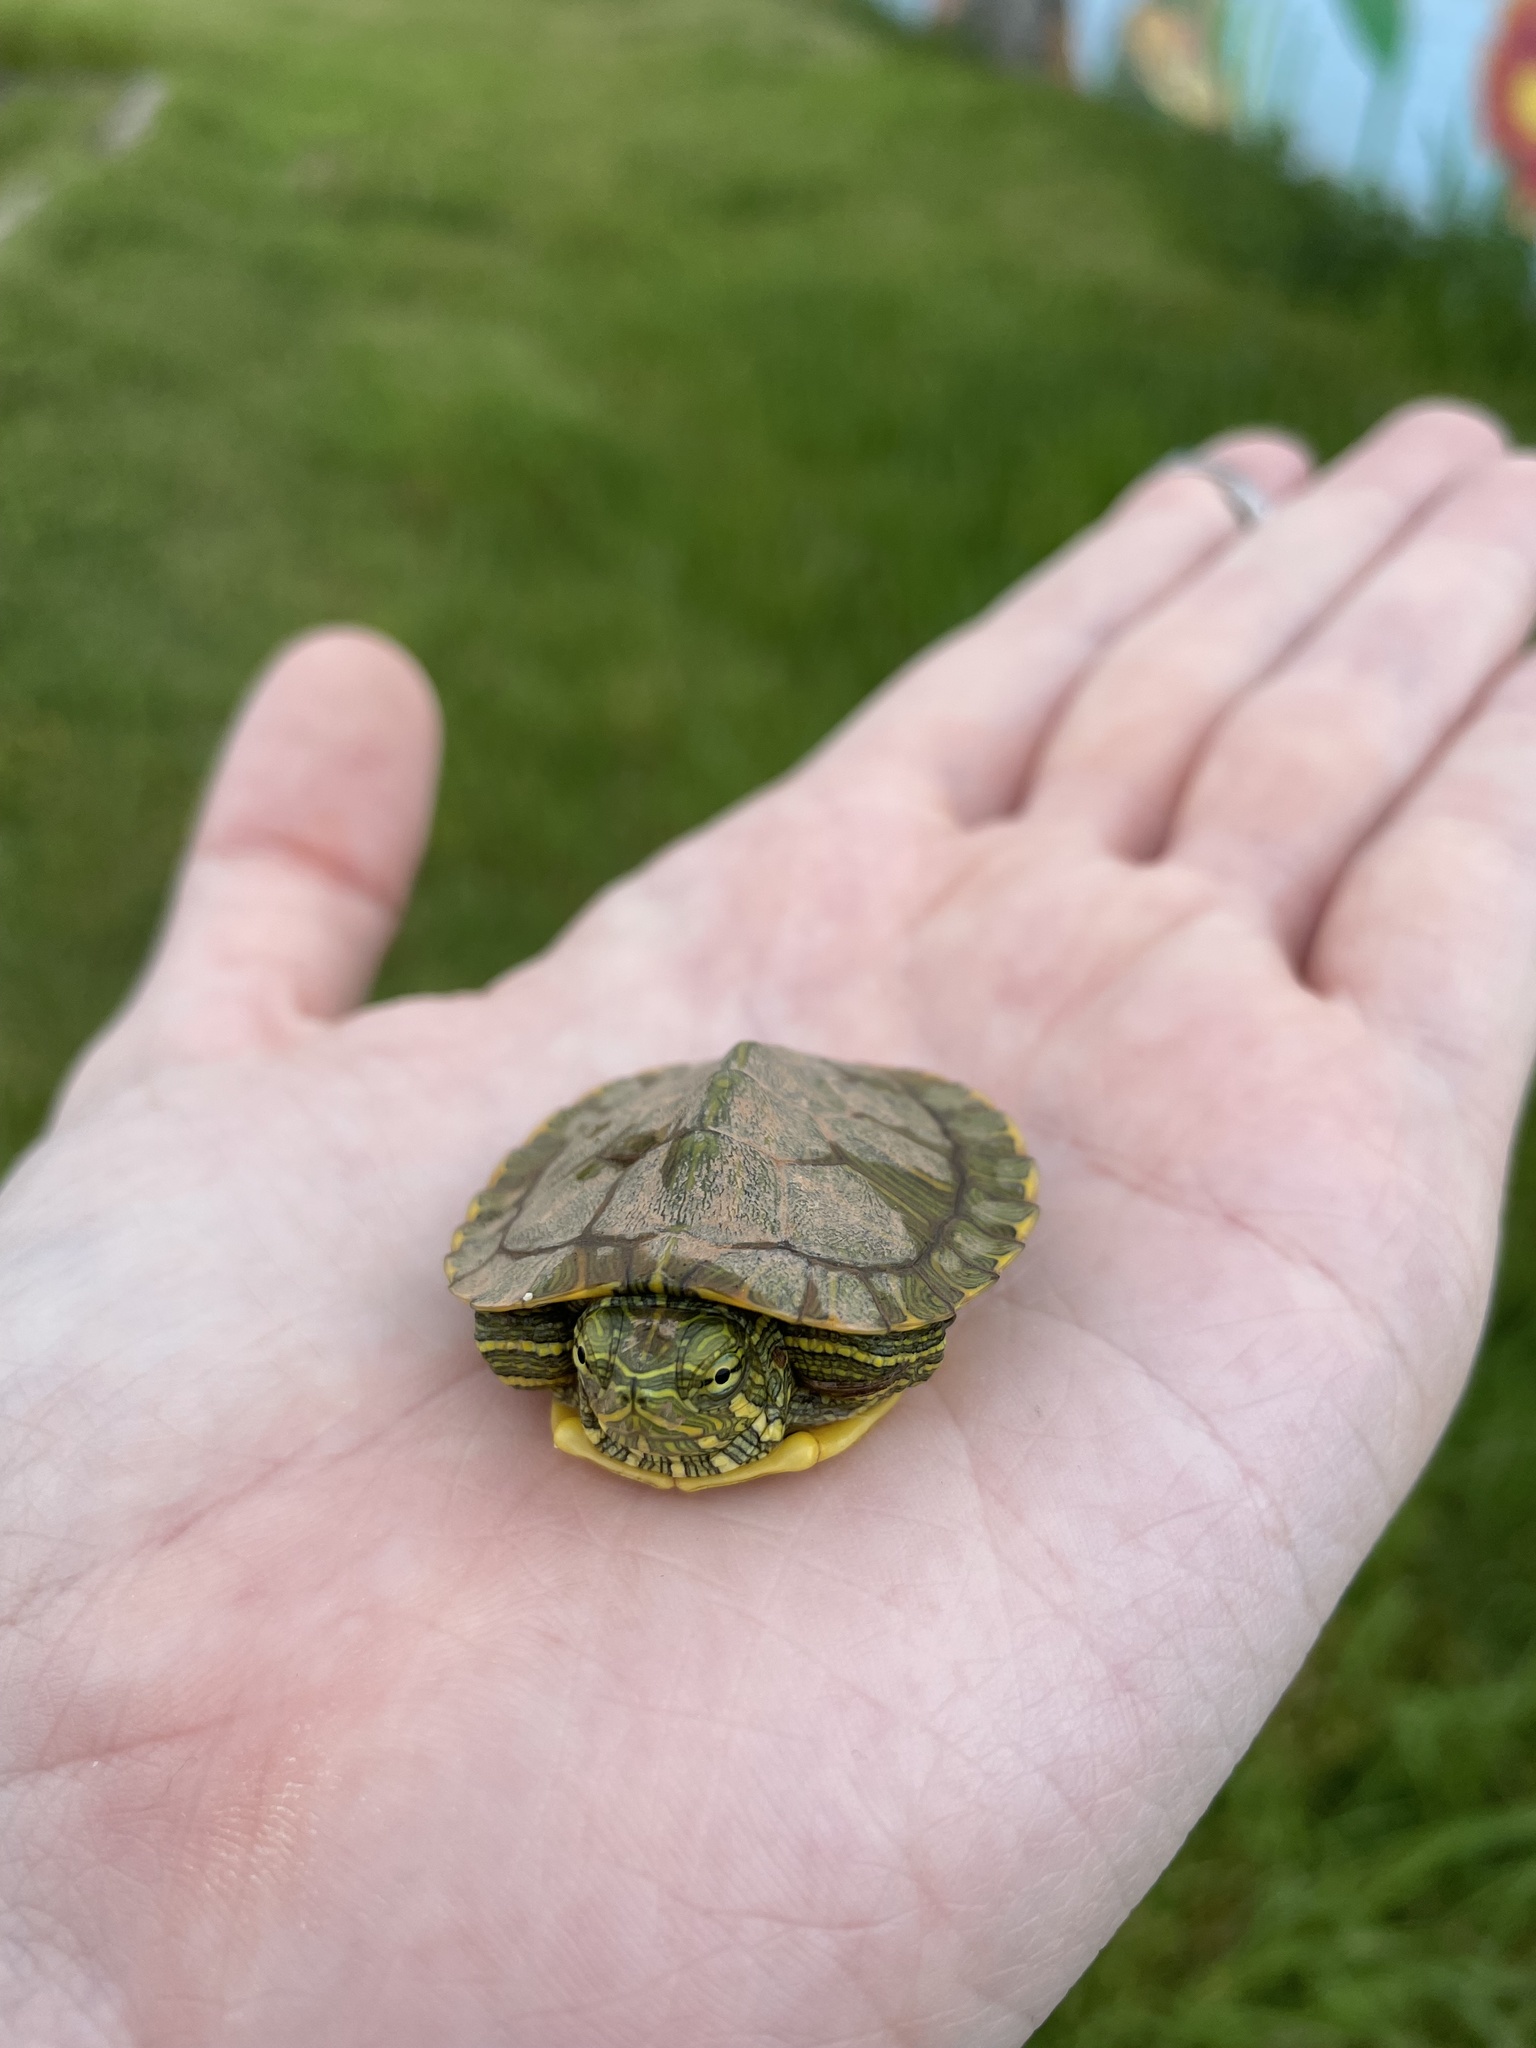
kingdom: Animalia
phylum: Chordata
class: Testudines
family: Emydidae
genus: Trachemys
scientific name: Trachemys scripta
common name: Slider
